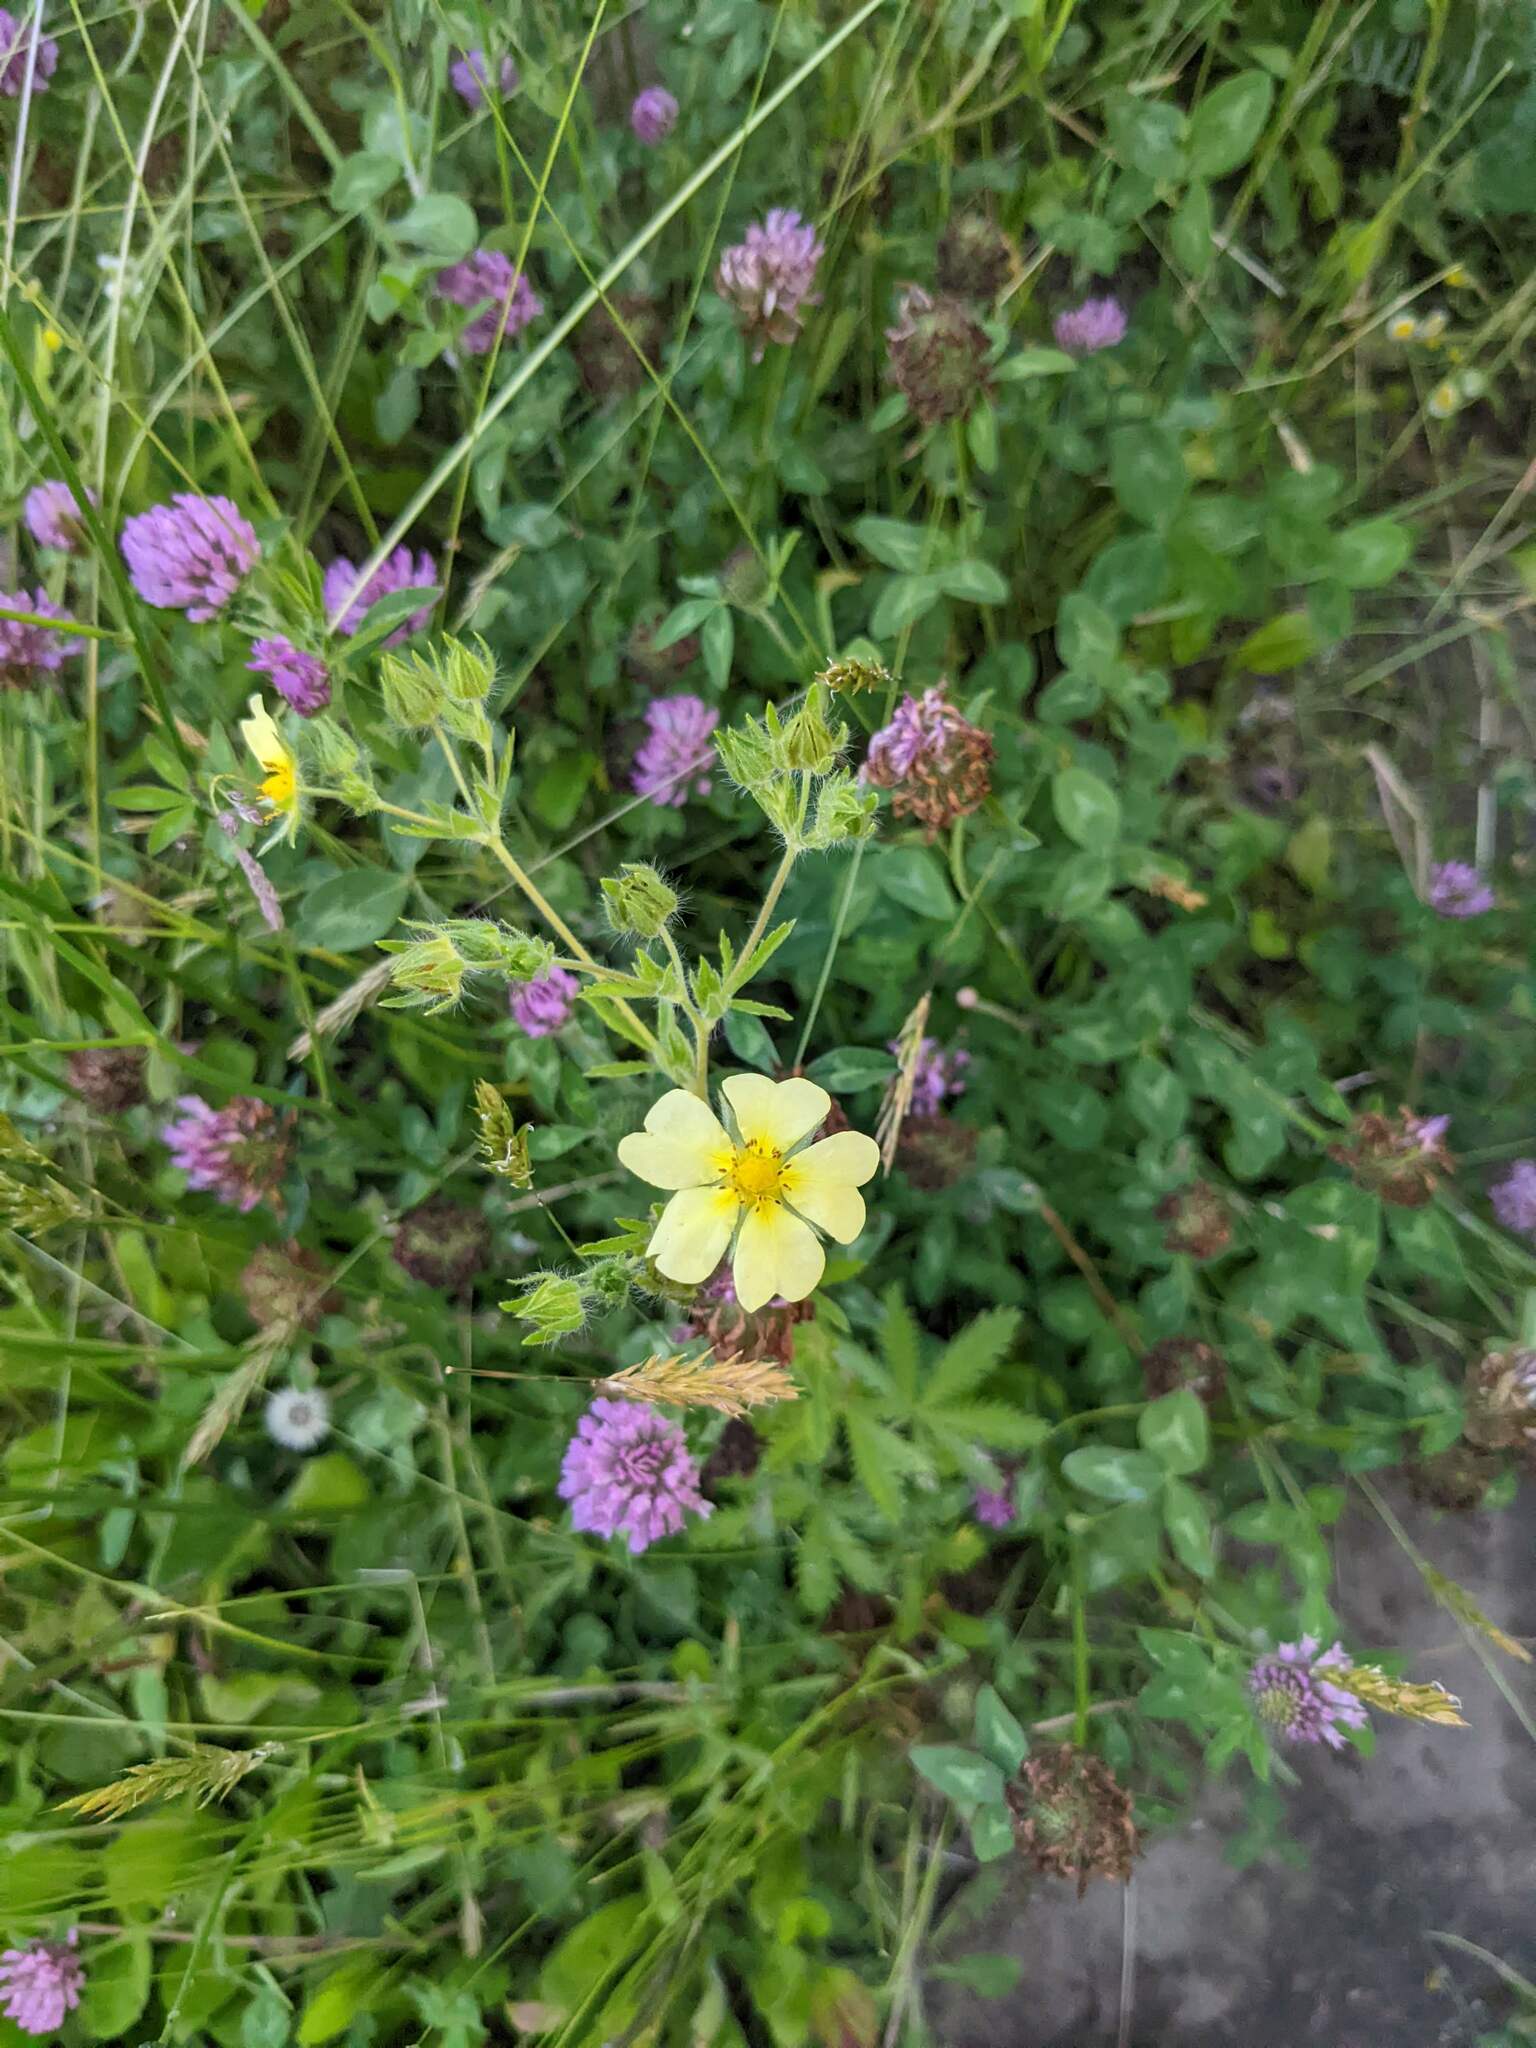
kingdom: Plantae
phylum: Tracheophyta
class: Magnoliopsida
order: Rosales
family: Rosaceae
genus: Potentilla
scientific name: Potentilla recta
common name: Sulphur cinquefoil
